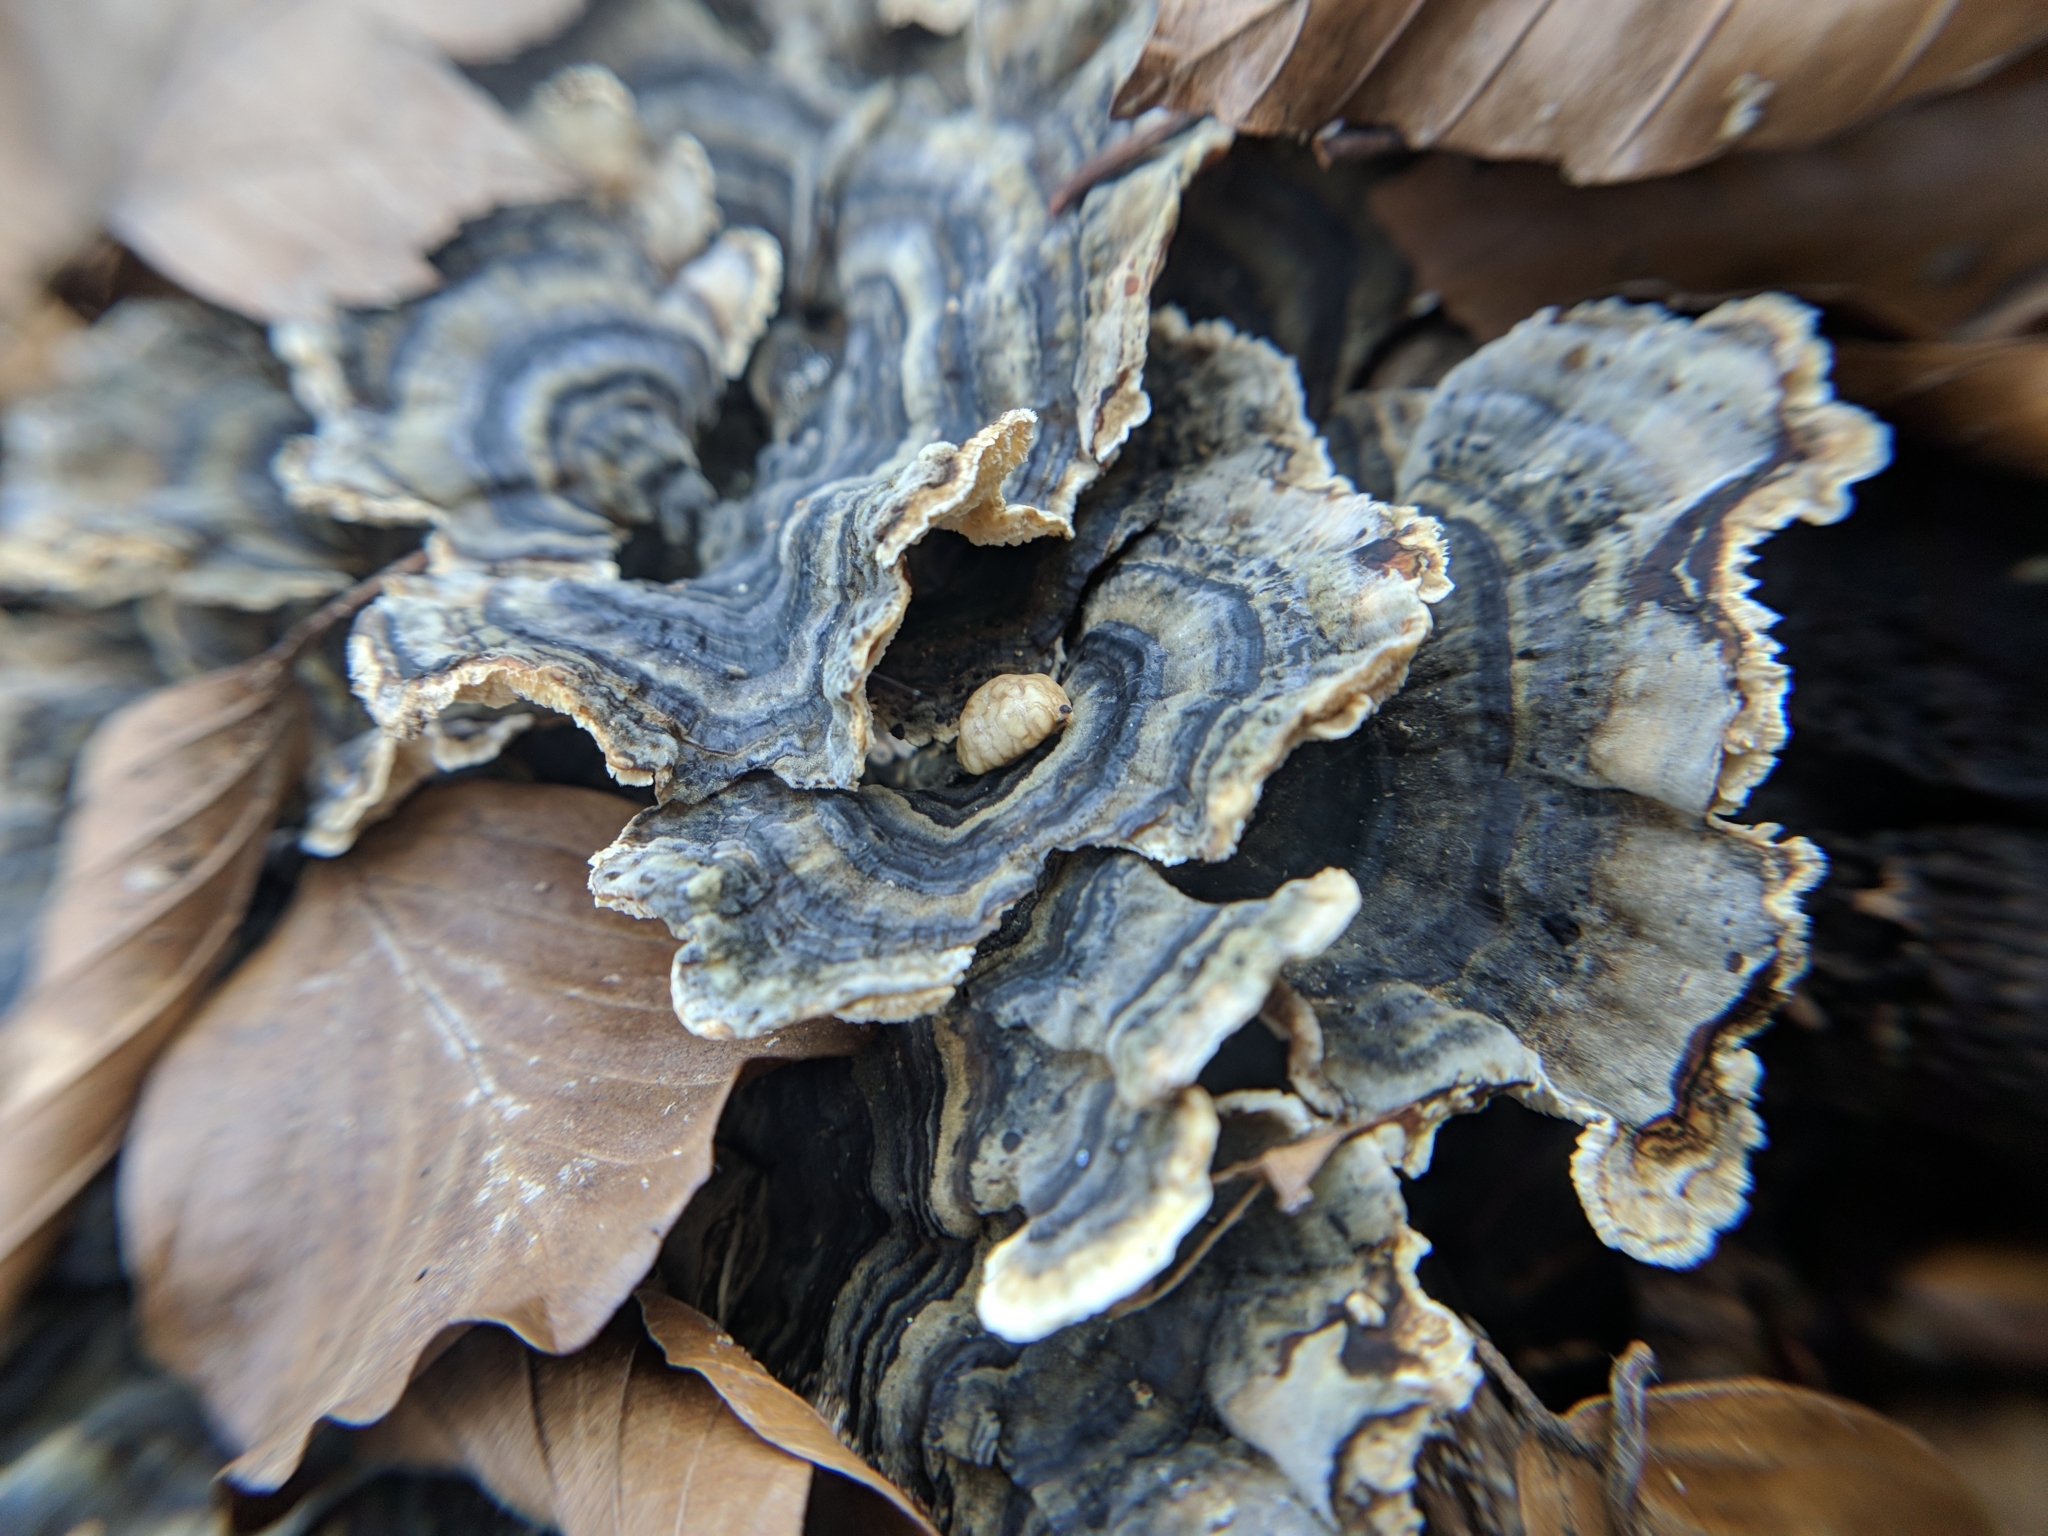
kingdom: Fungi
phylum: Basidiomycota
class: Agaricomycetes
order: Polyporales
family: Polyporaceae
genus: Trametes
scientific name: Trametes versicolor
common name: Turkeytail
